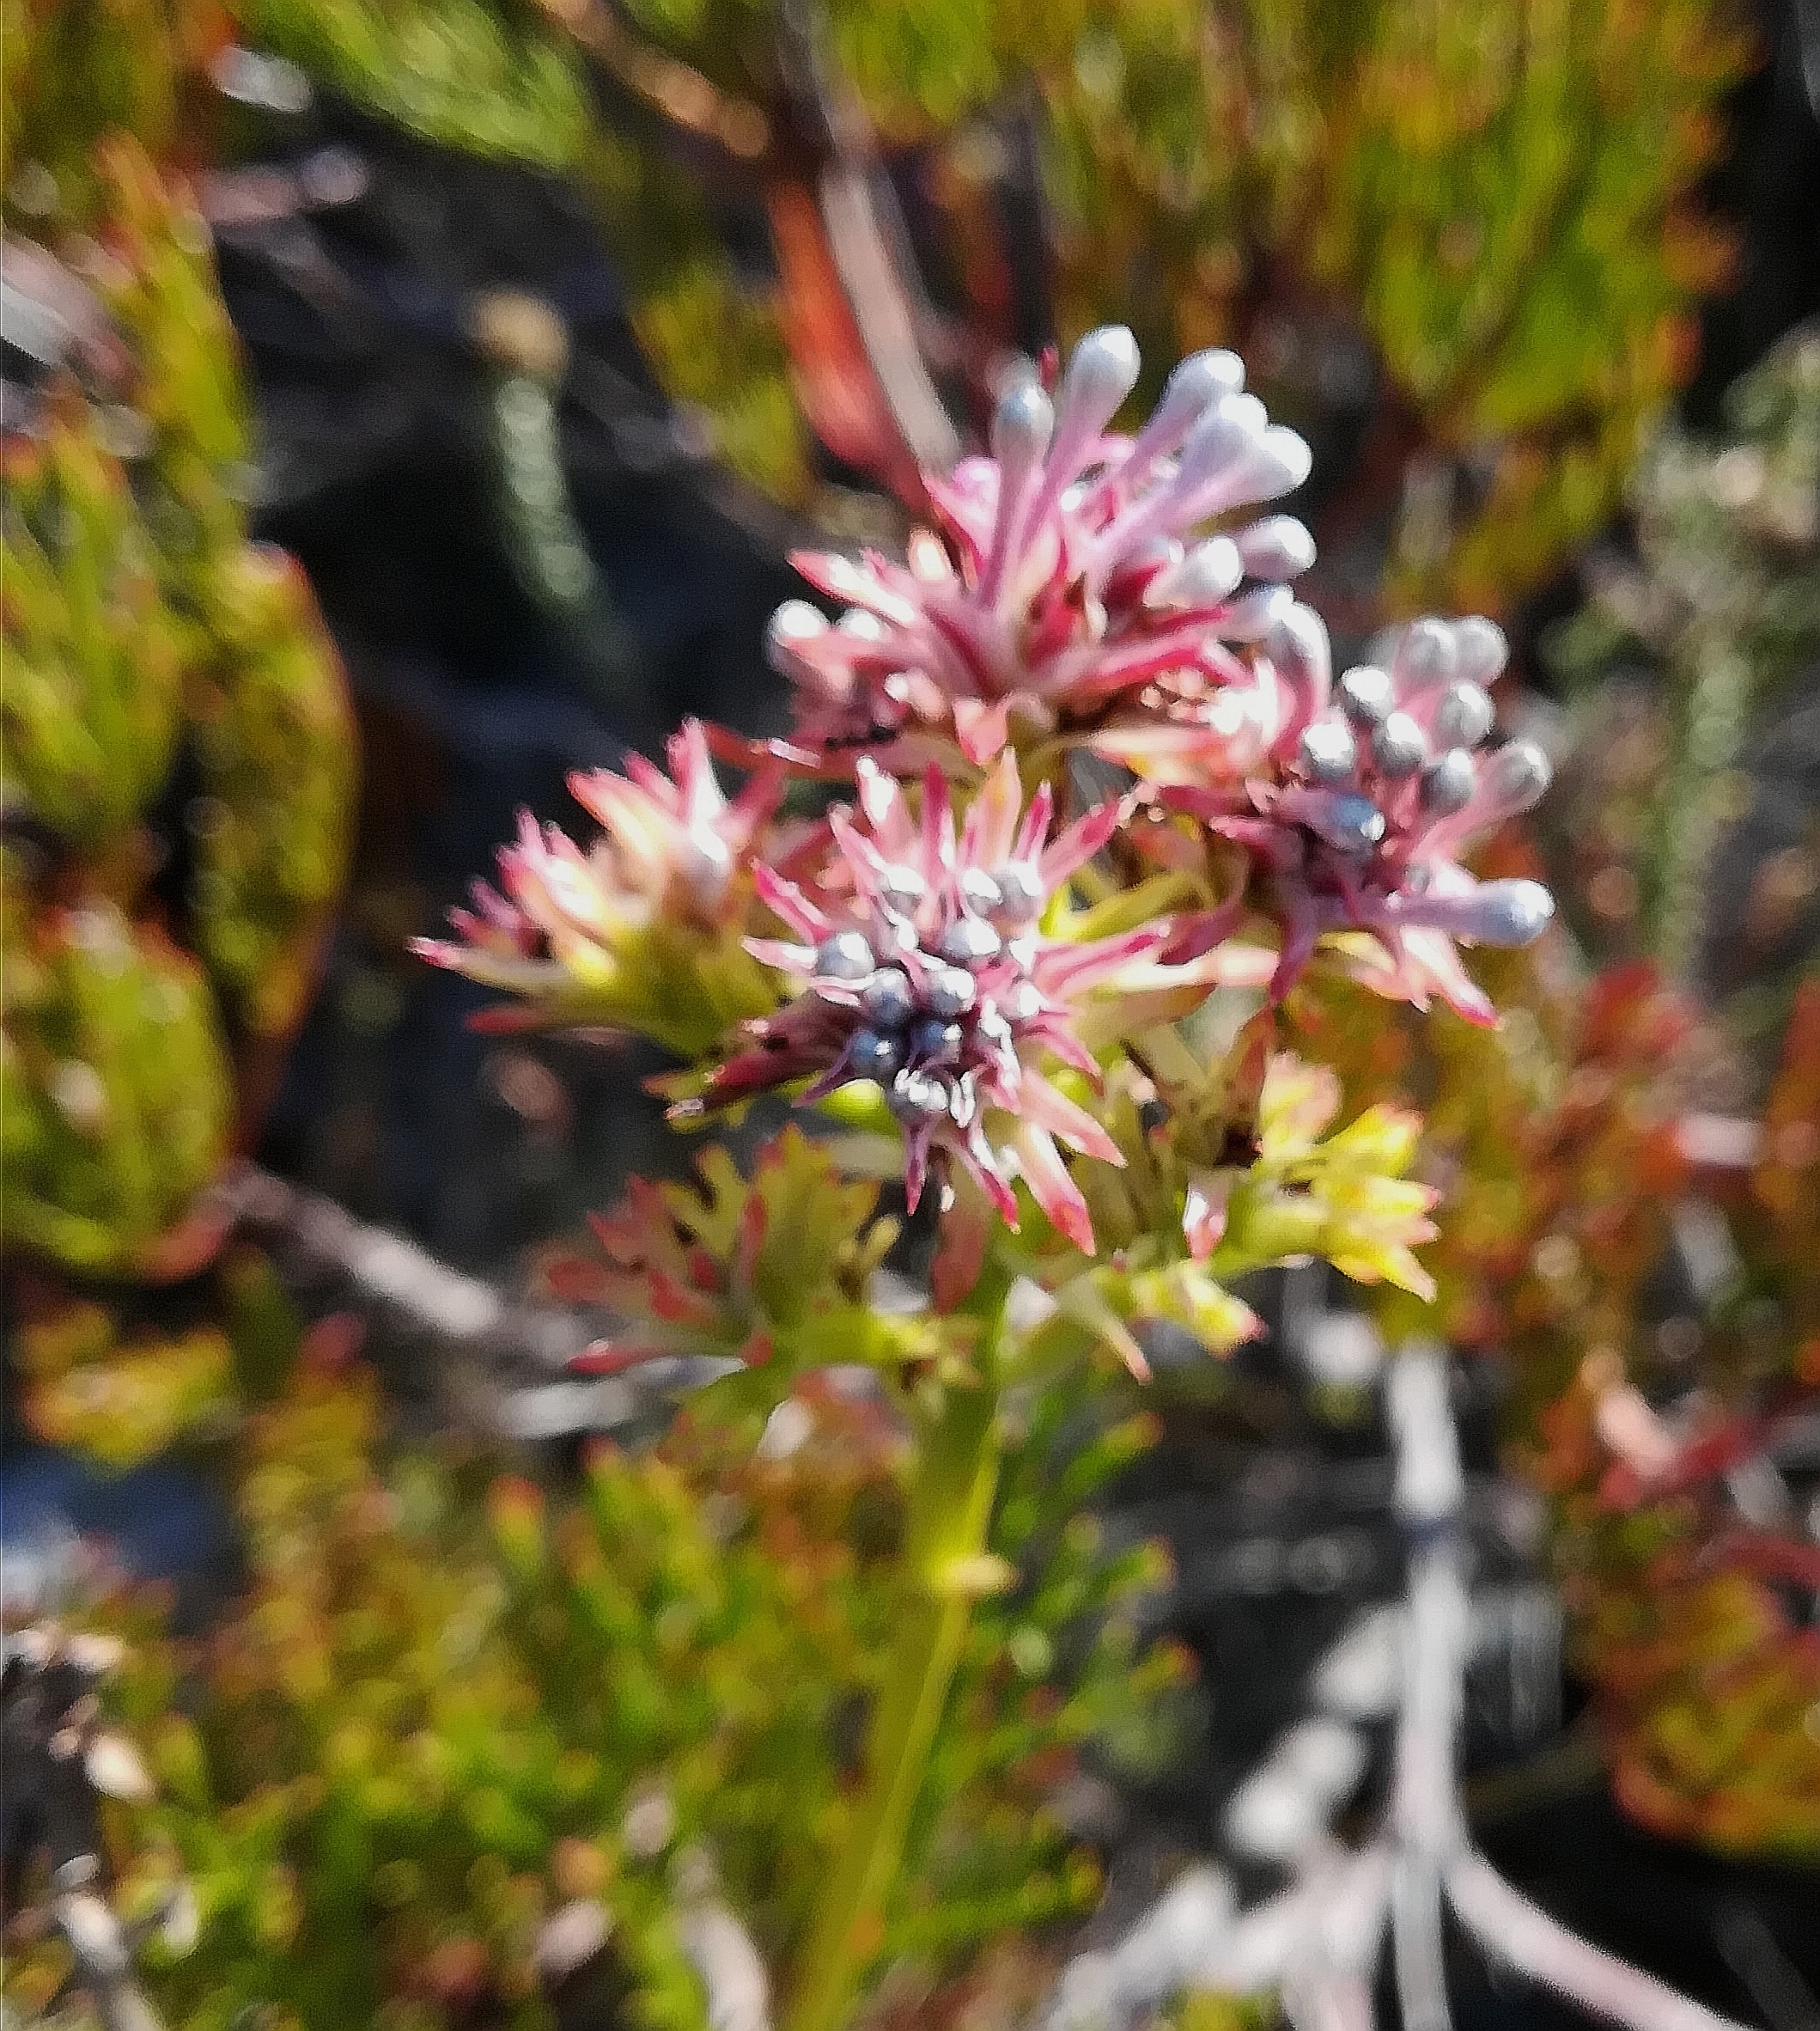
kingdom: Plantae
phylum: Tracheophyta
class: Magnoliopsida
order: Proteales
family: Proteaceae
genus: Serruria
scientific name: Serruria elongata
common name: Long-stalk spiderhead
